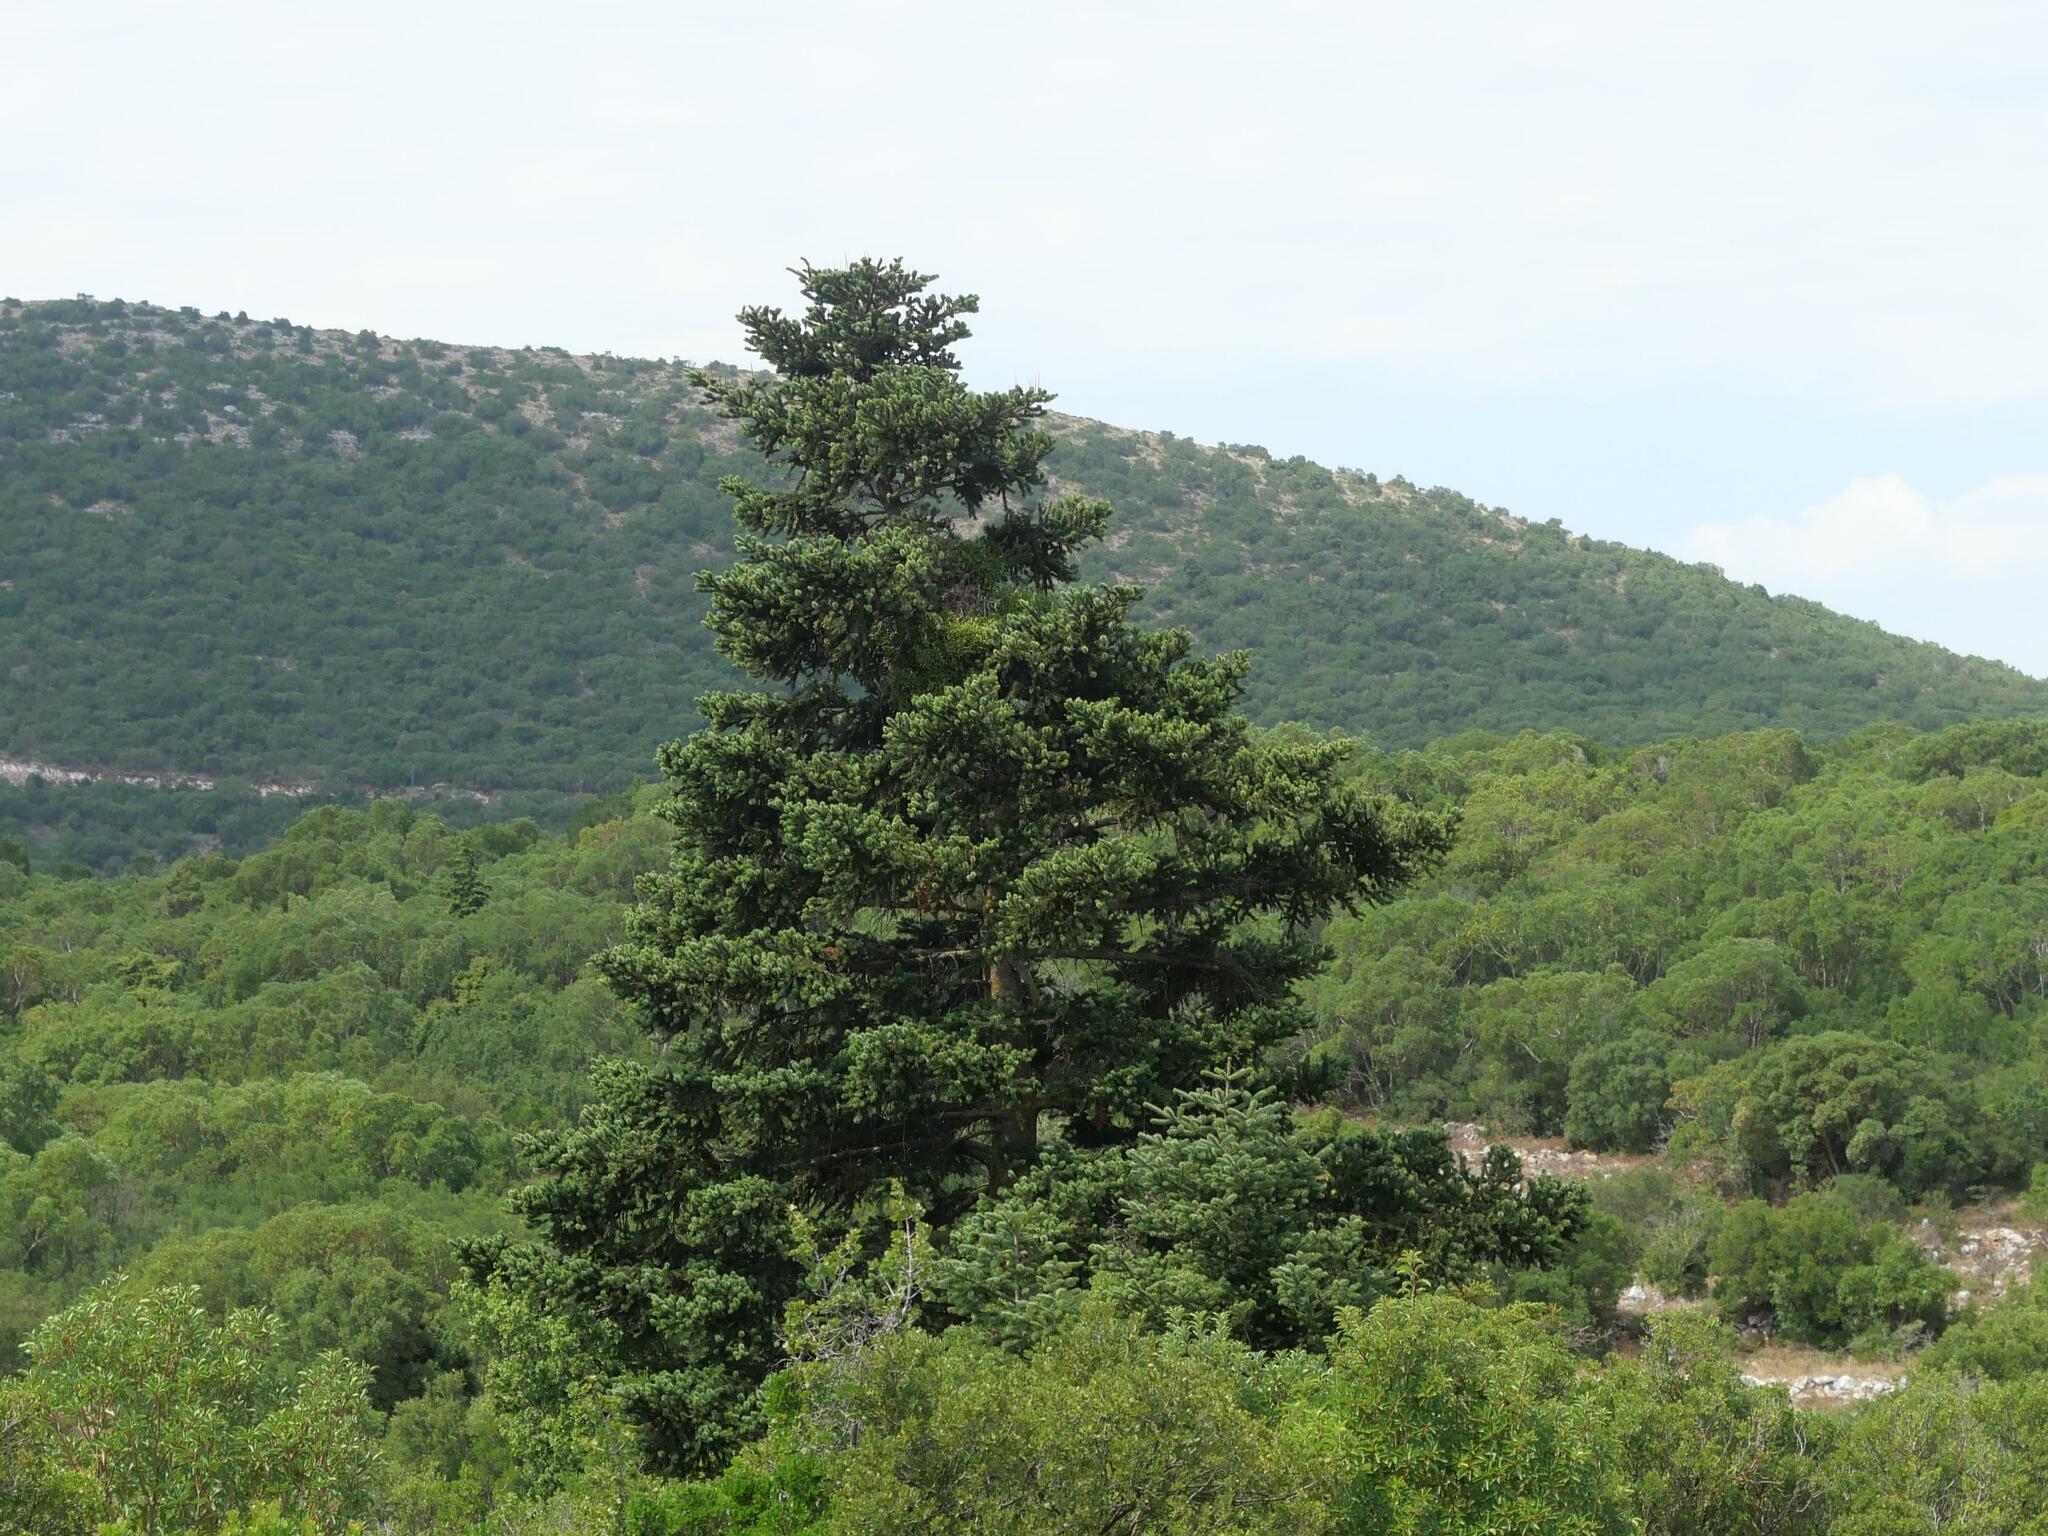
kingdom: Plantae
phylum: Tracheophyta
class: Pinopsida
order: Pinales
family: Pinaceae
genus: Abies
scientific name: Abies cephalonica
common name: Greek fir
